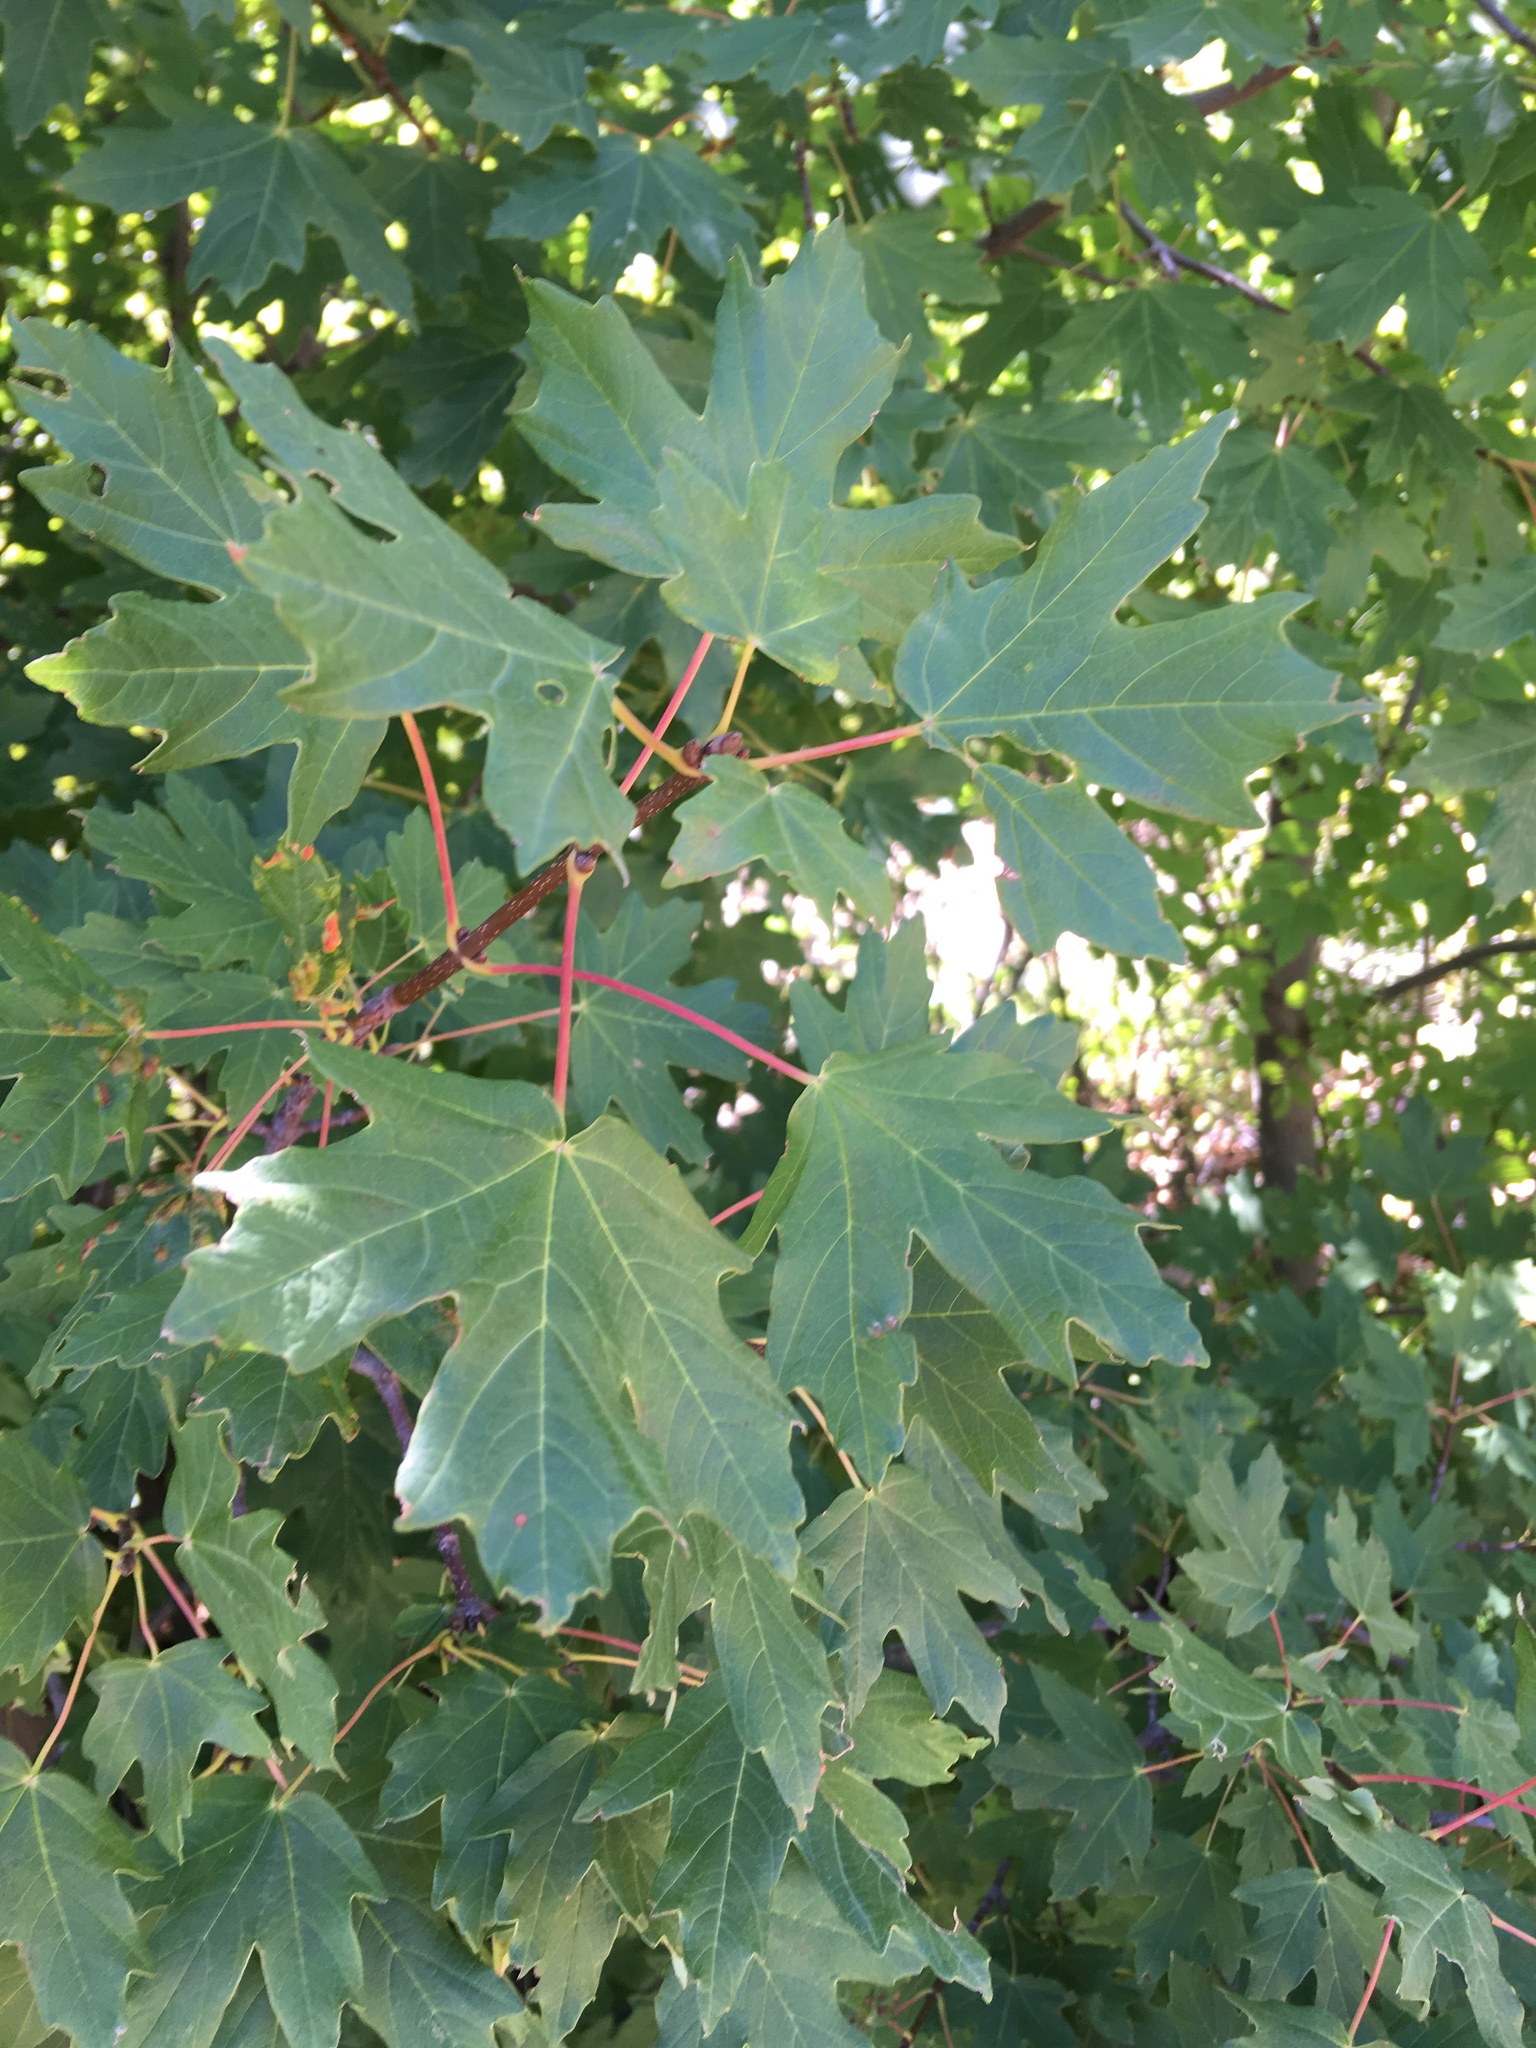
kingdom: Plantae
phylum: Tracheophyta
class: Magnoliopsida
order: Sapindales
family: Sapindaceae
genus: Acer
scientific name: Acer hyrcanum
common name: Balkan maple
